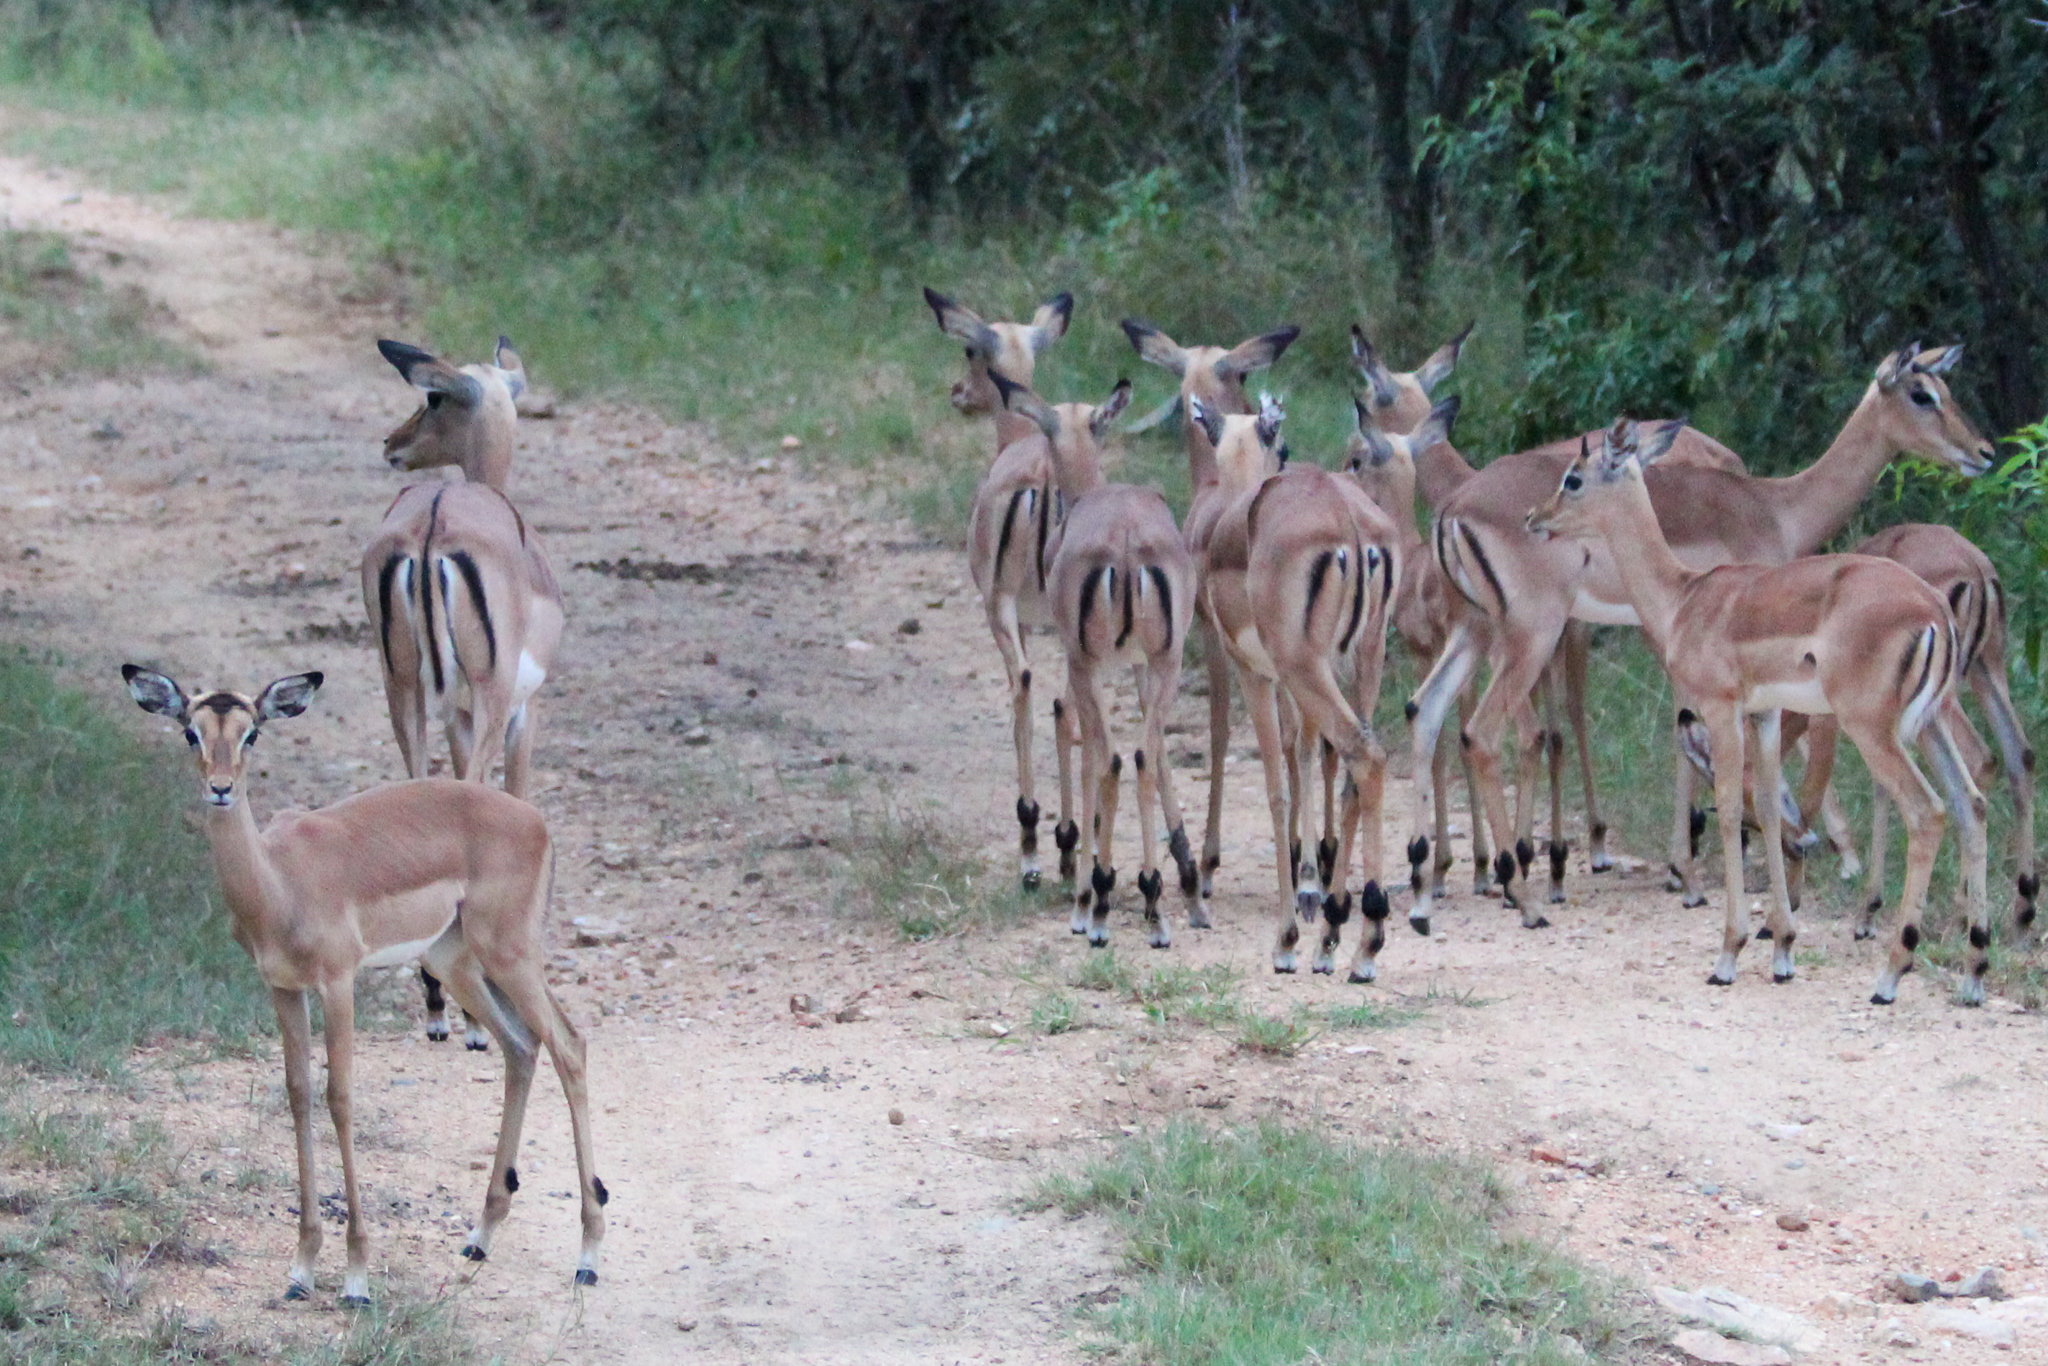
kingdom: Animalia
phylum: Chordata
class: Mammalia
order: Artiodactyla
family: Bovidae
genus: Aepyceros
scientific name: Aepyceros melampus
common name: Impala
